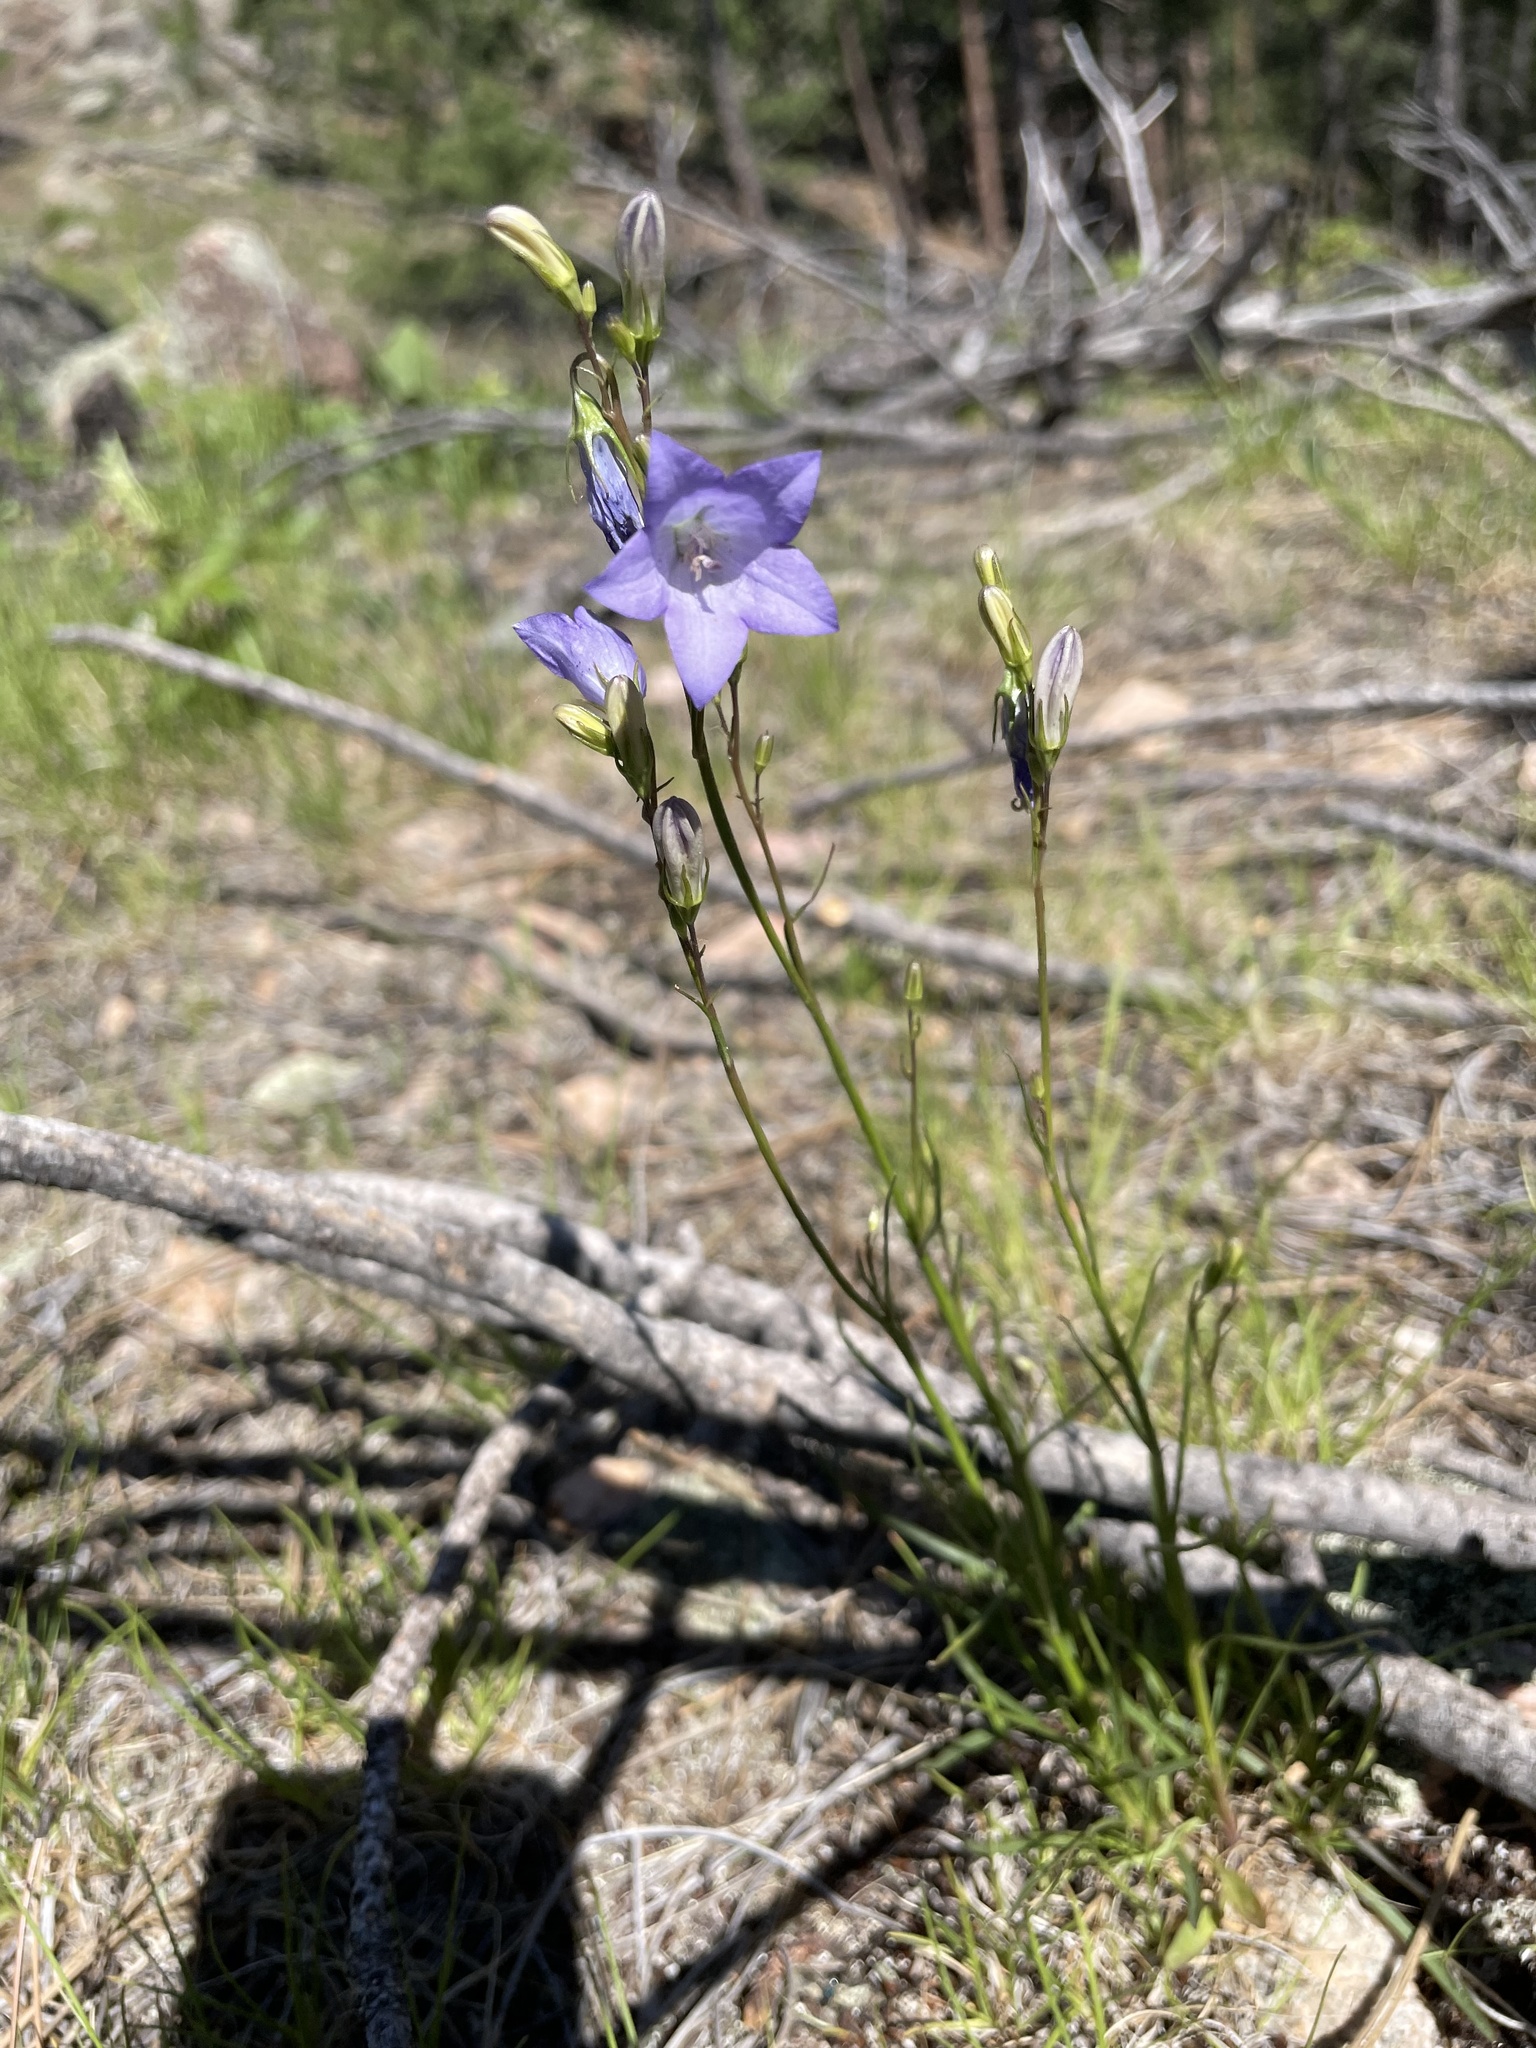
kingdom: Plantae
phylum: Tracheophyta
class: Magnoliopsida
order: Asterales
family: Campanulaceae
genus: Campanula
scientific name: Campanula petiolata
